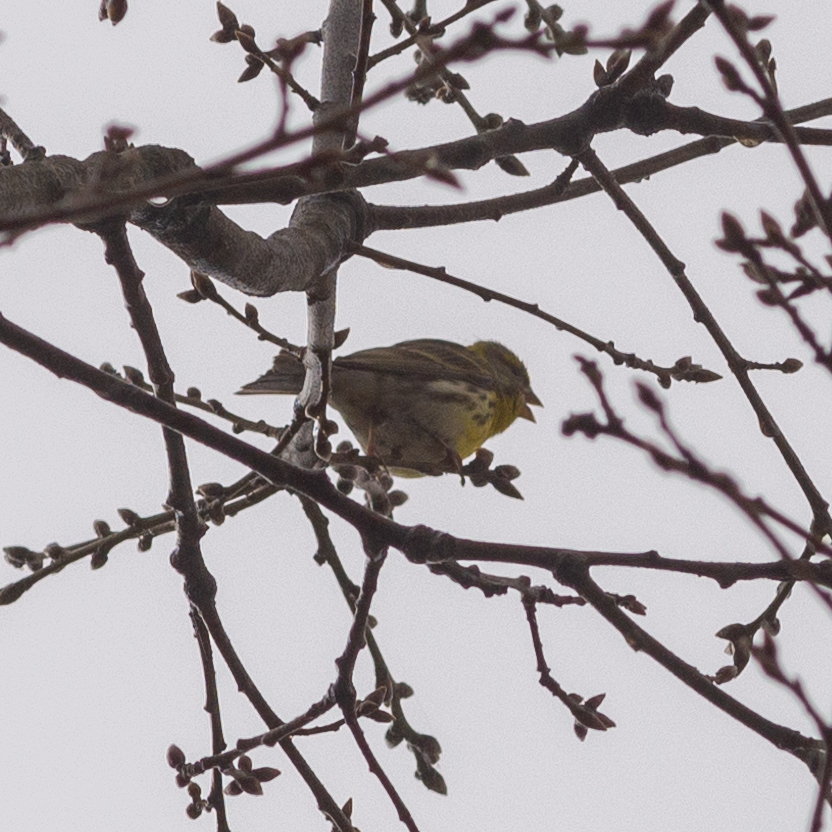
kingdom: Animalia
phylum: Chordata
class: Aves
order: Passeriformes
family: Fringillidae
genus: Serinus
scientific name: Serinus serinus
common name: European serin
